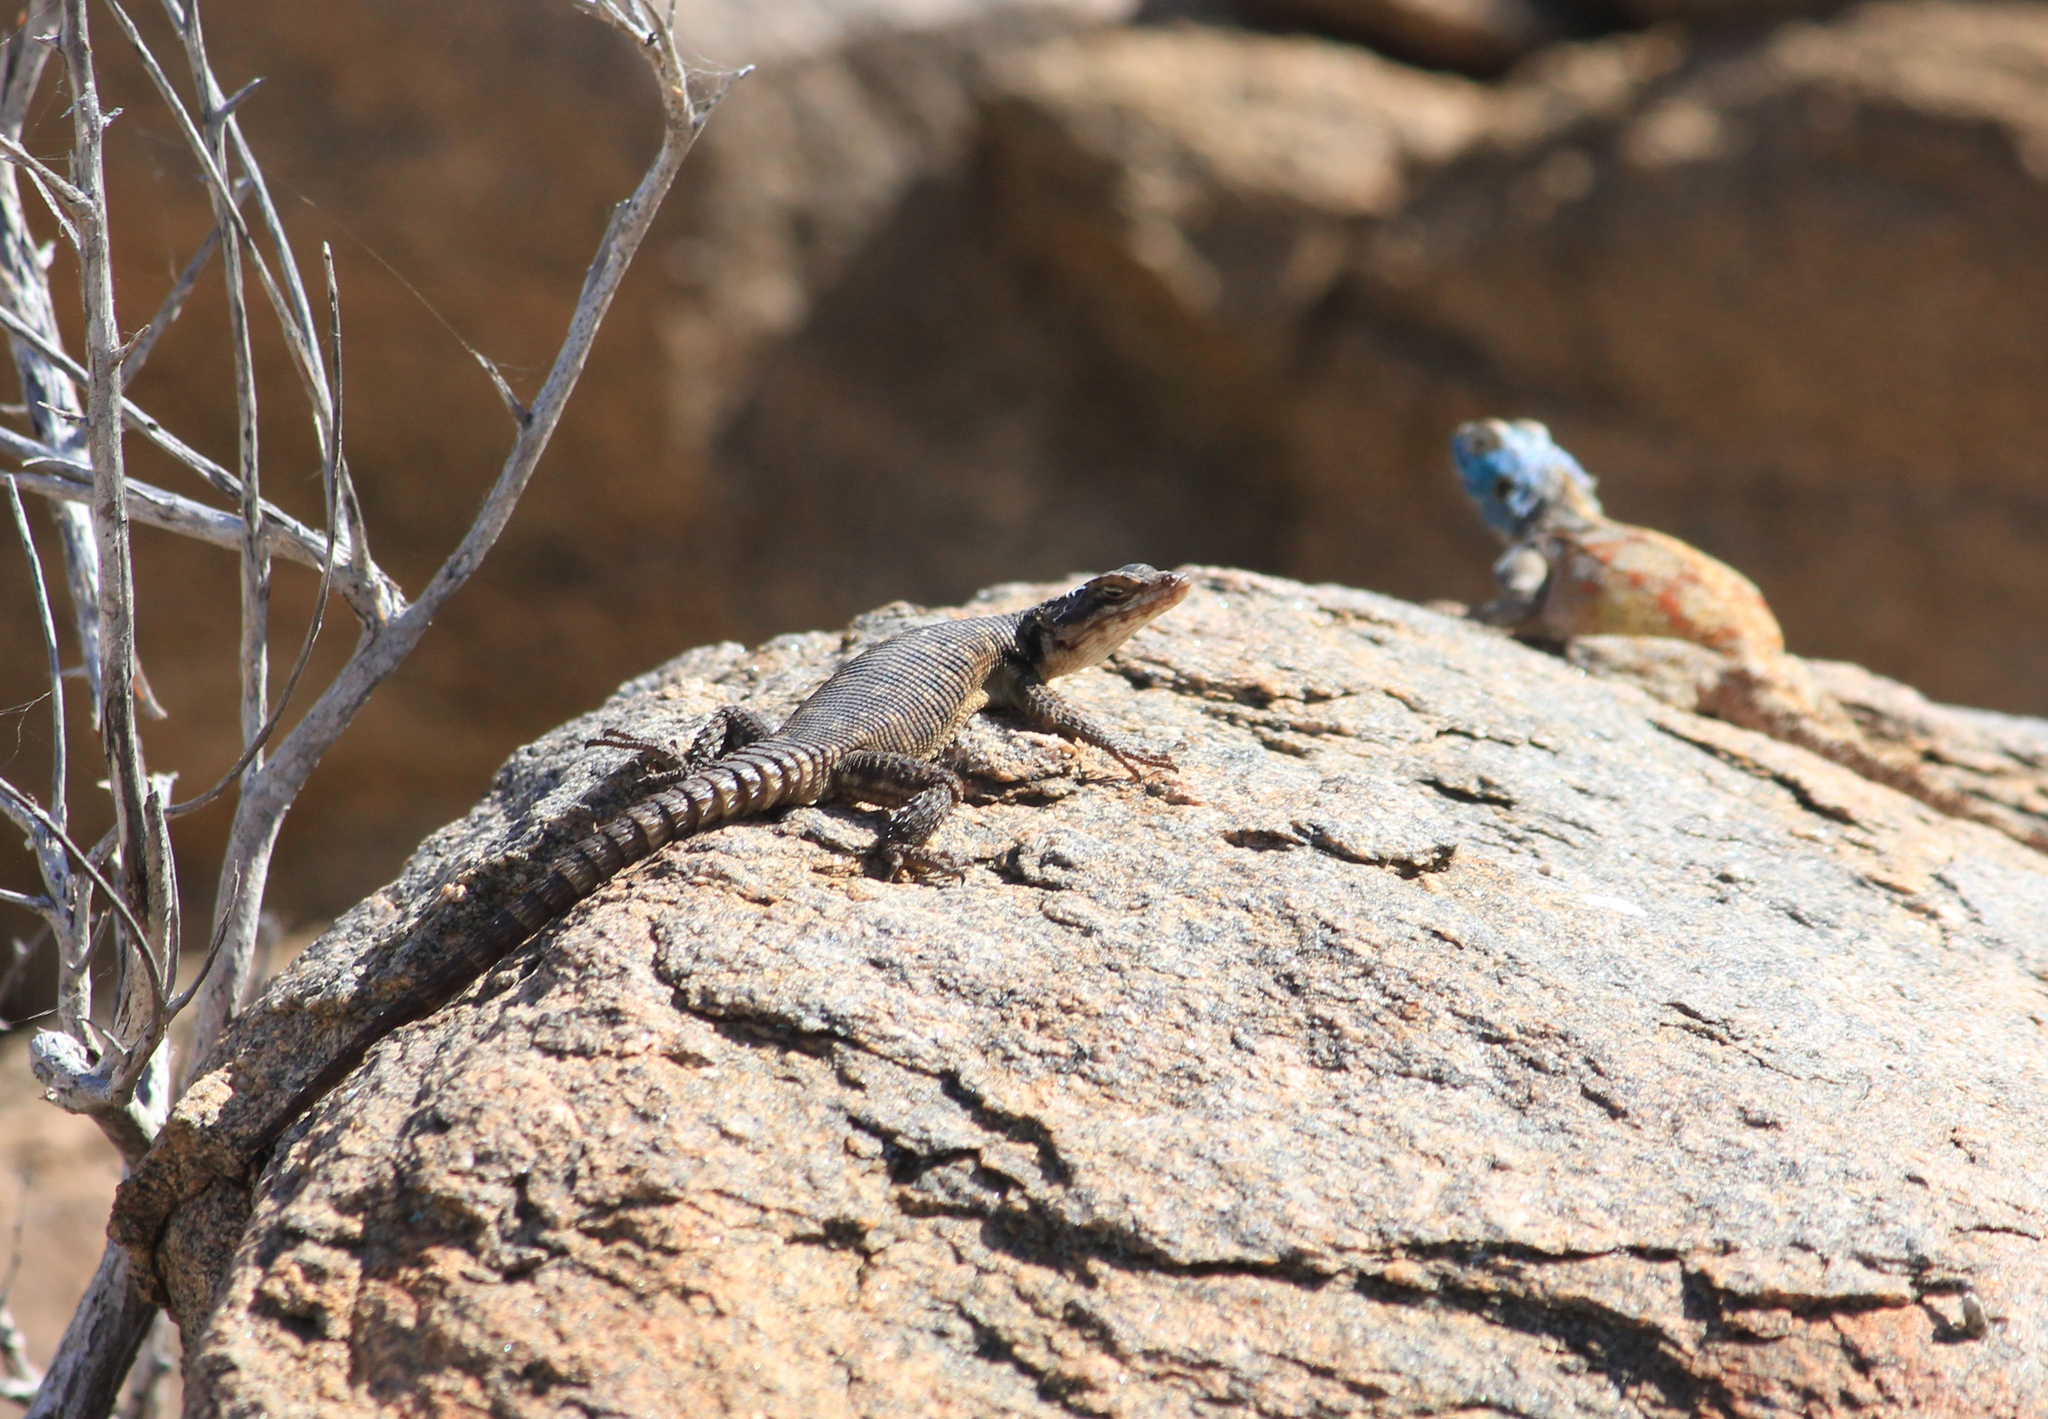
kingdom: Animalia
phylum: Chordata
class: Squamata
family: Cordylidae
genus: Karusasaurus
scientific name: Karusasaurus polyzonus
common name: Karoo girdled lizard
